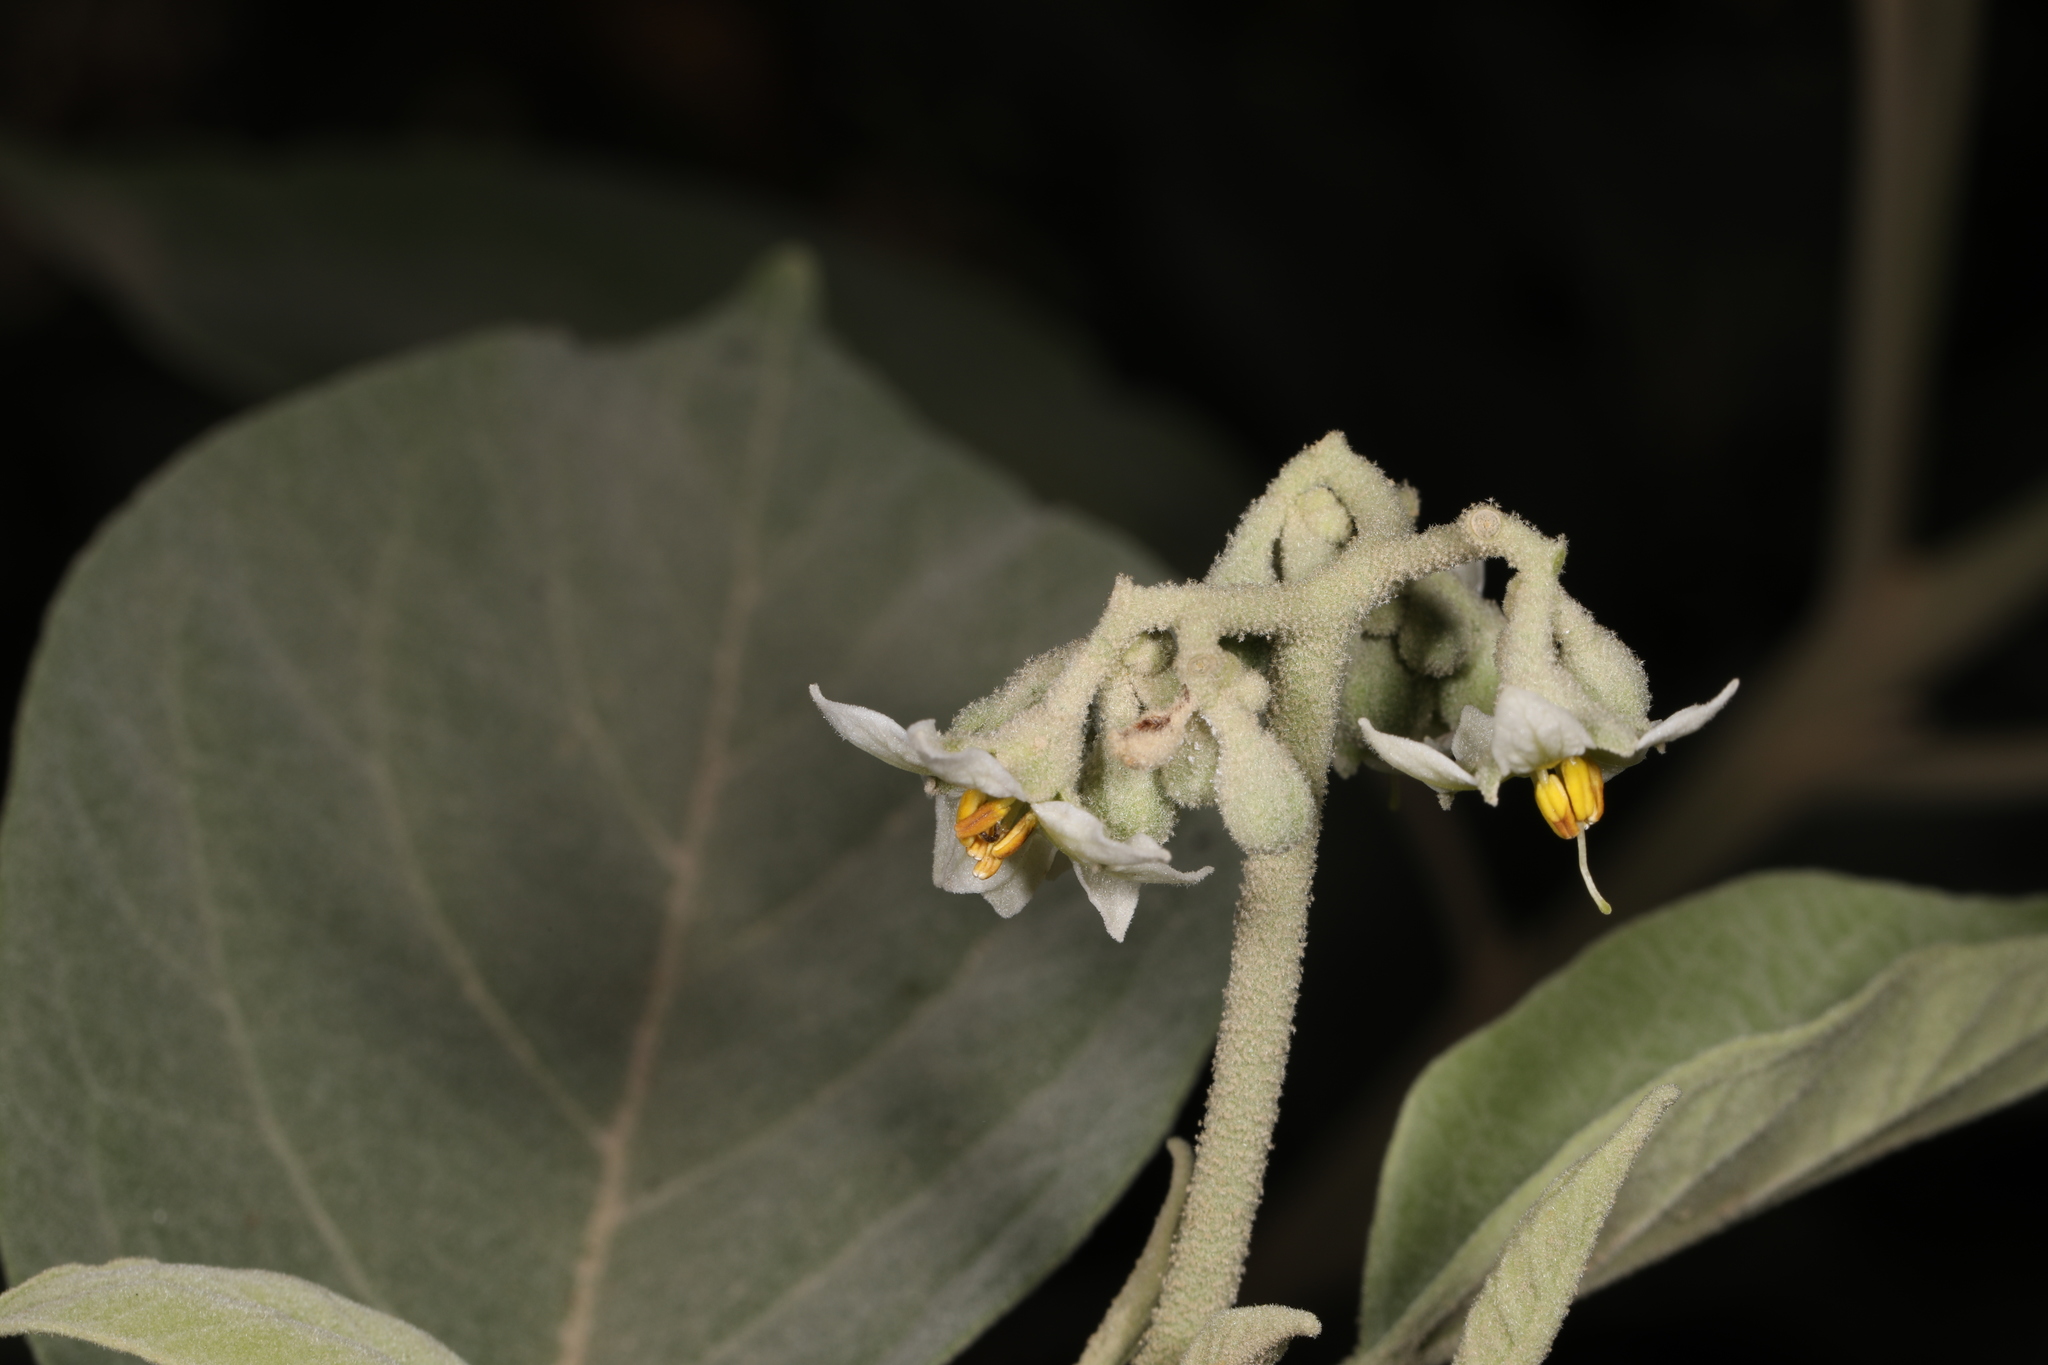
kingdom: Plantae
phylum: Tracheophyta
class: Magnoliopsida
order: Solanales
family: Solanaceae
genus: Solanum
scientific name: Solanum erianthum
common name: Tobacco-tree
